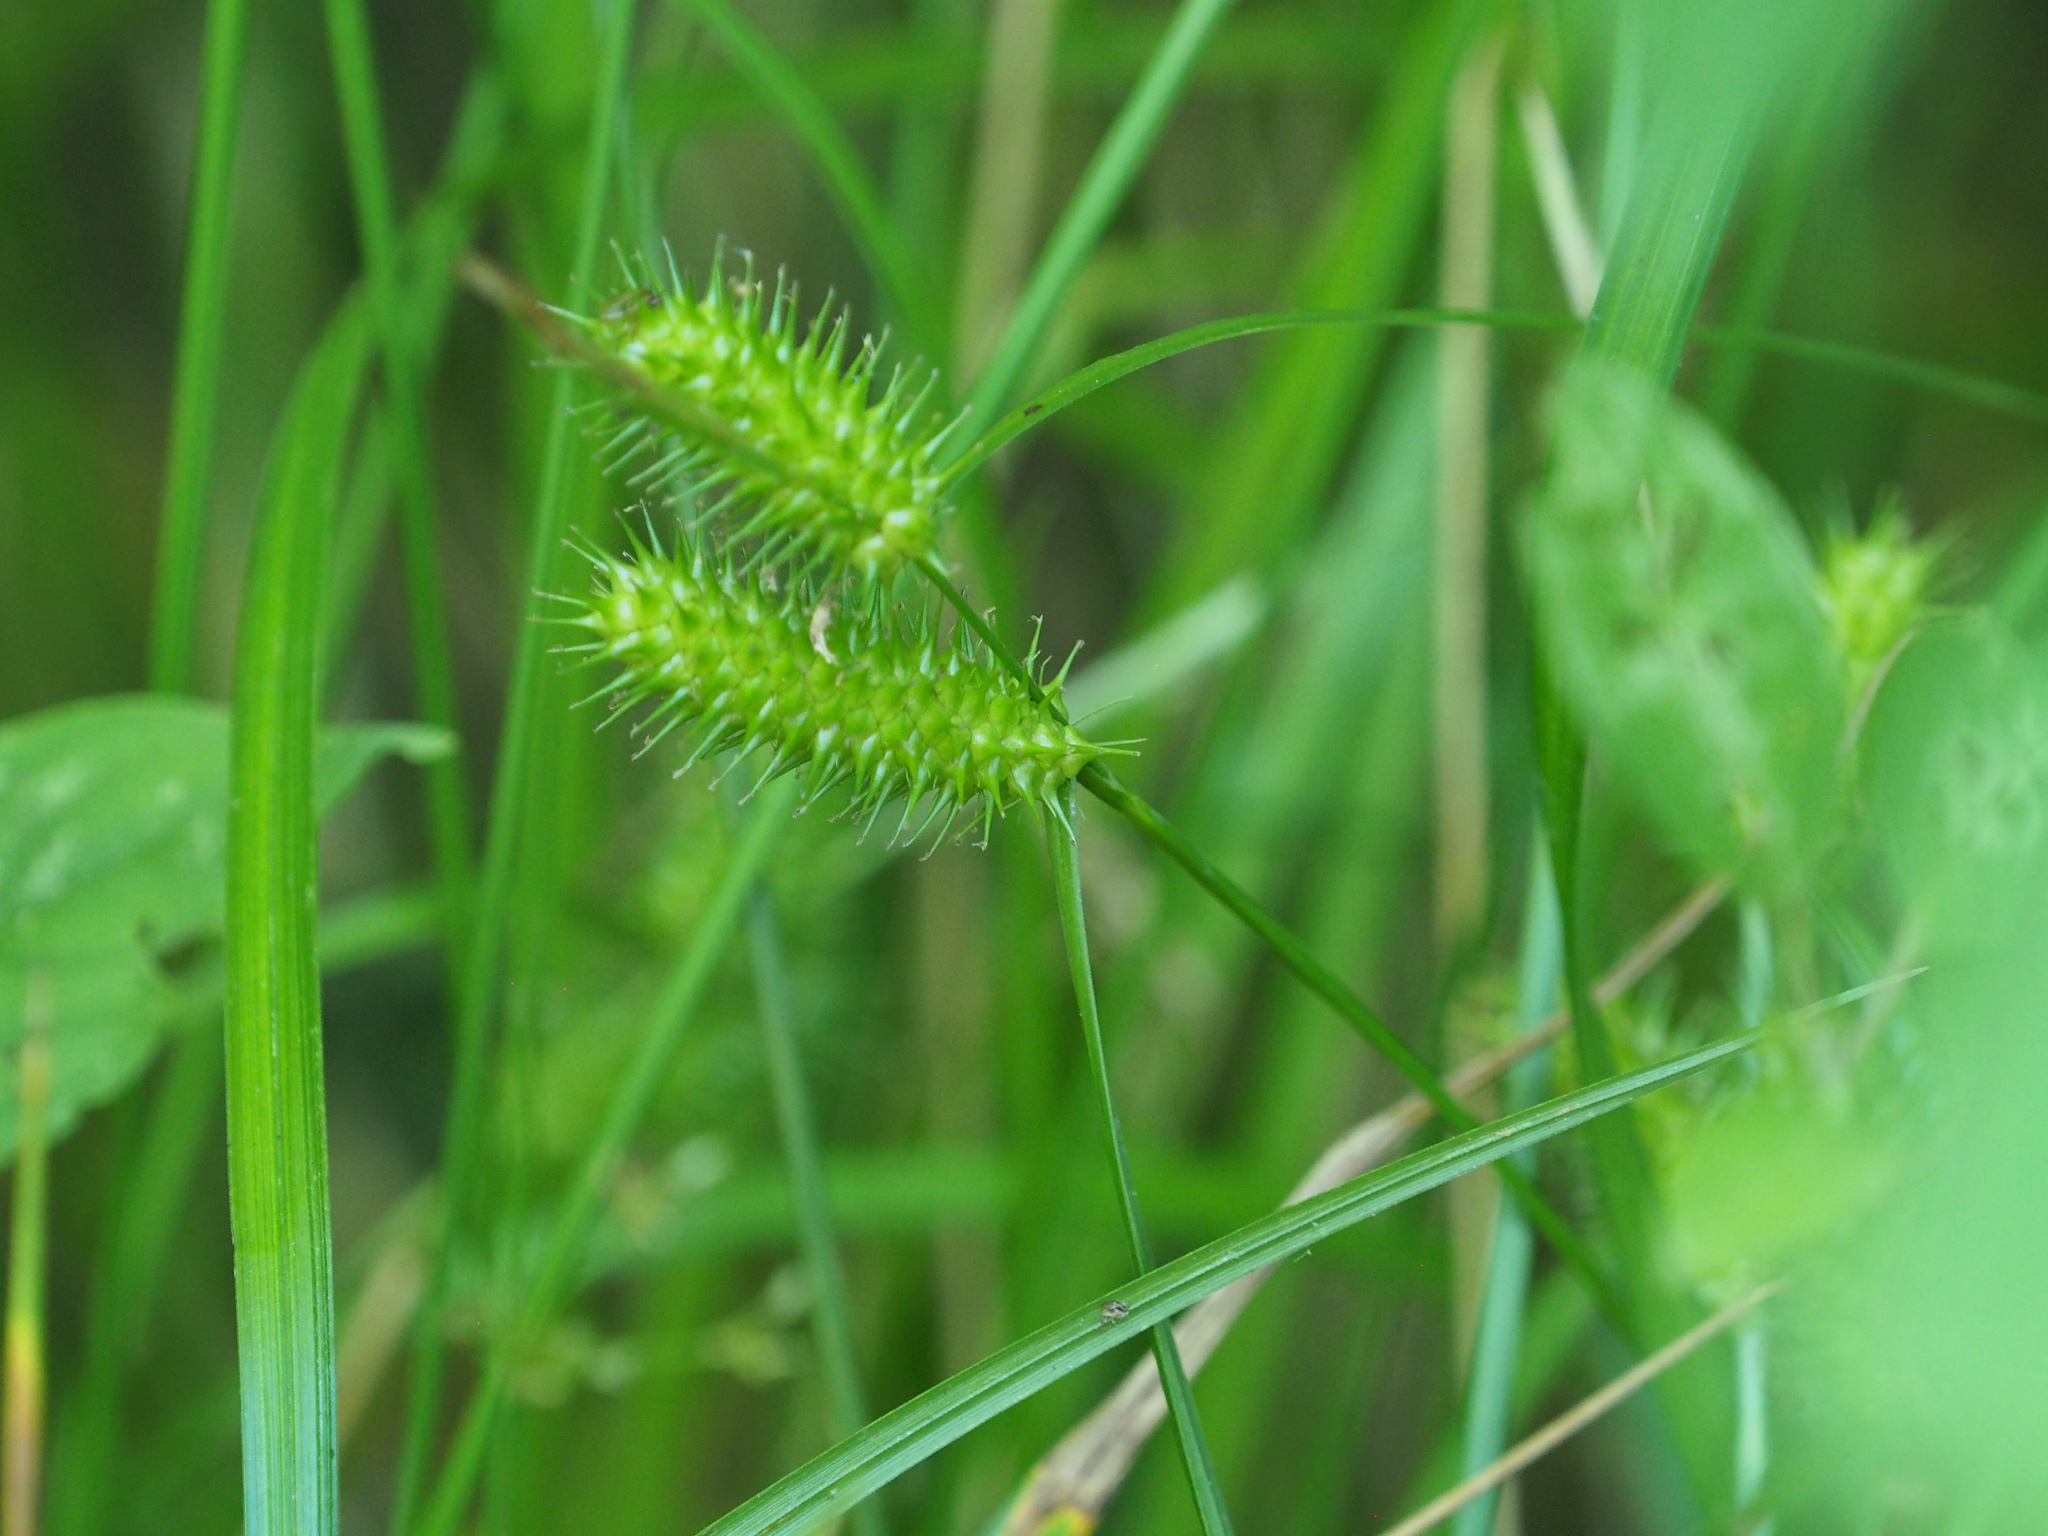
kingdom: Plantae
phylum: Tracheophyta
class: Liliopsida
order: Poales
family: Cyperaceae
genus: Carex
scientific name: Carex lurida
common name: Sallow sedge
